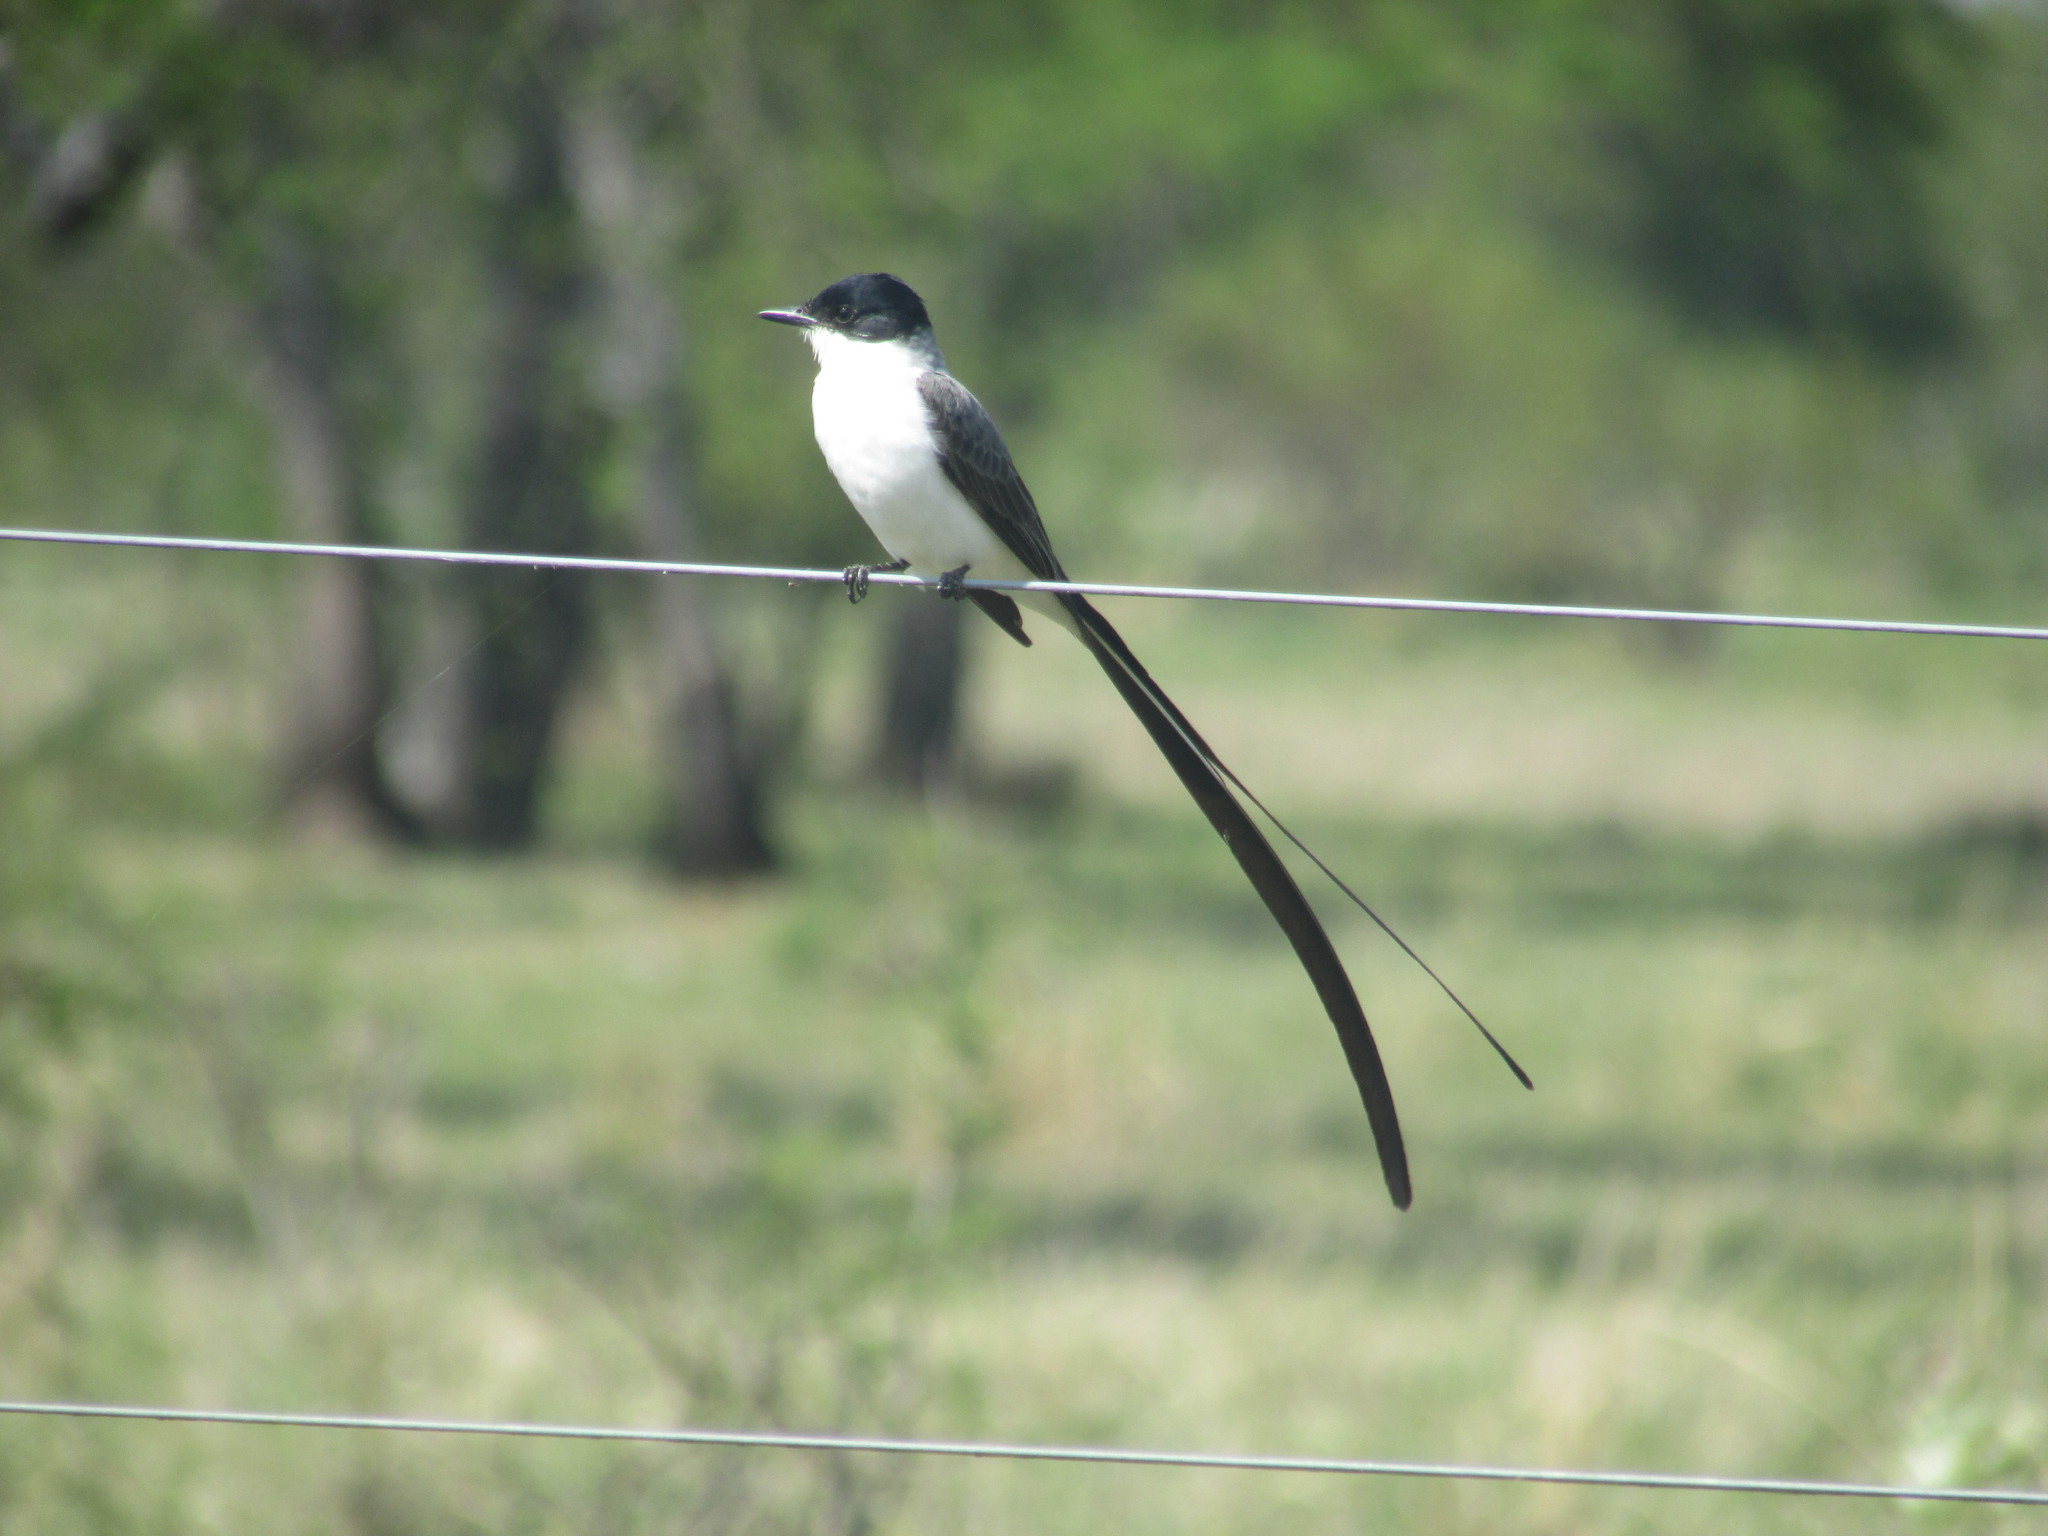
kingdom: Animalia
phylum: Chordata
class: Aves
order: Passeriformes
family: Tyrannidae
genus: Tyrannus
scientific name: Tyrannus savana
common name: Fork-tailed flycatcher
